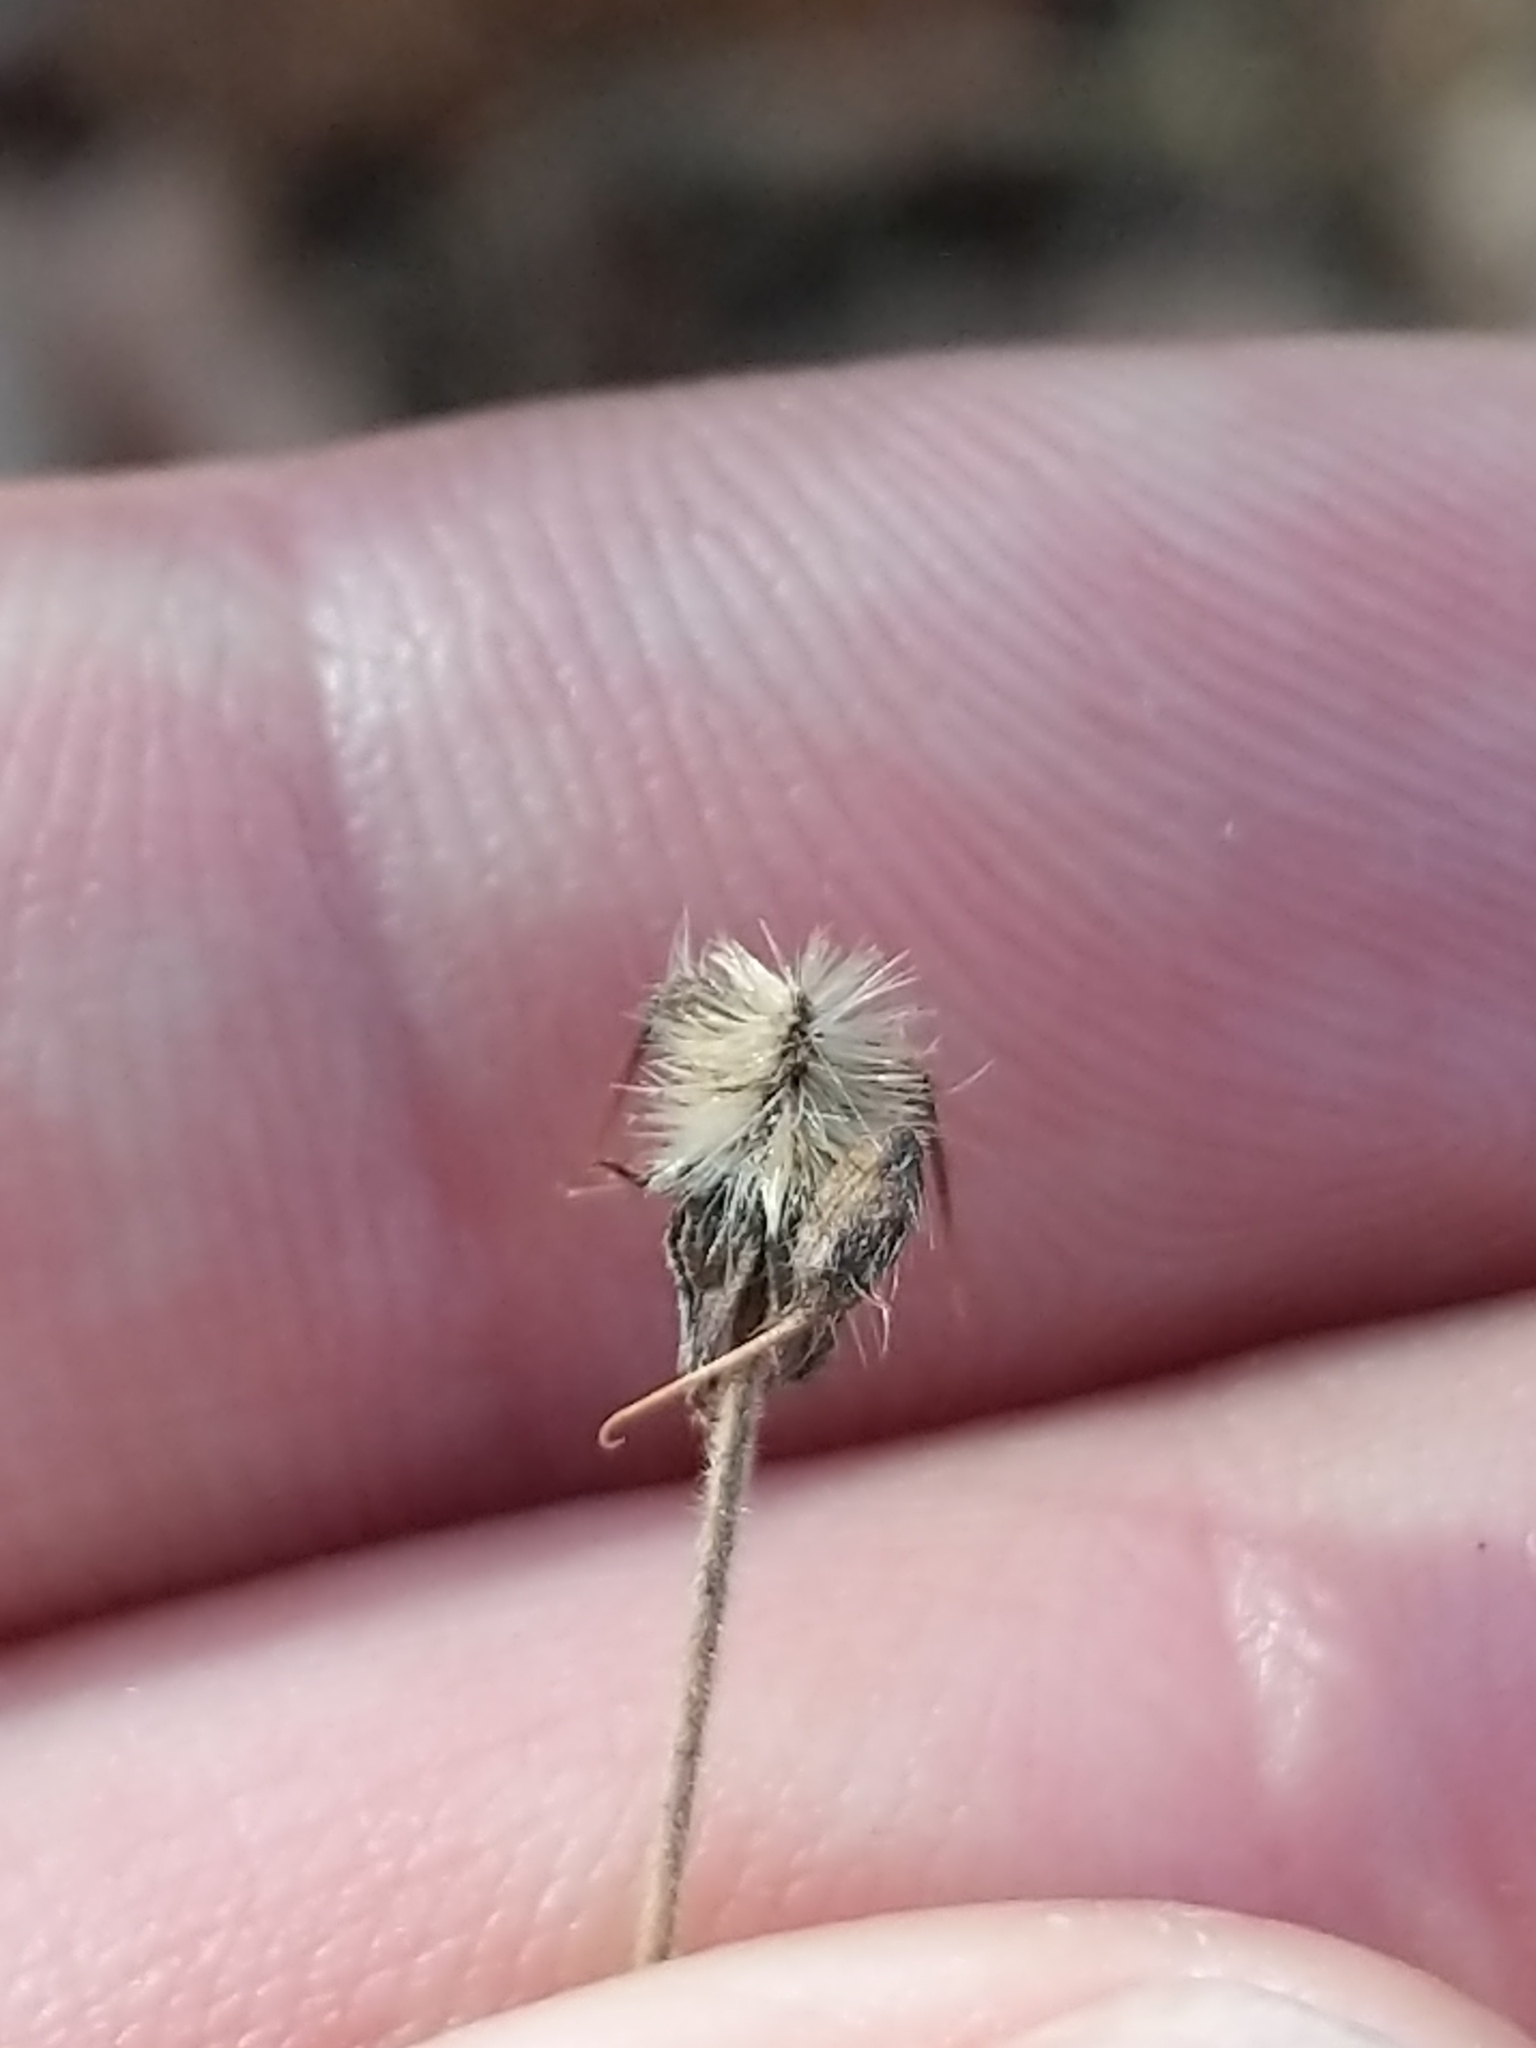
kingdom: Plantae
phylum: Tracheophyta
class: Magnoliopsida
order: Rosales
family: Rosaceae
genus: Geum
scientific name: Geum canadense
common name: White avens
